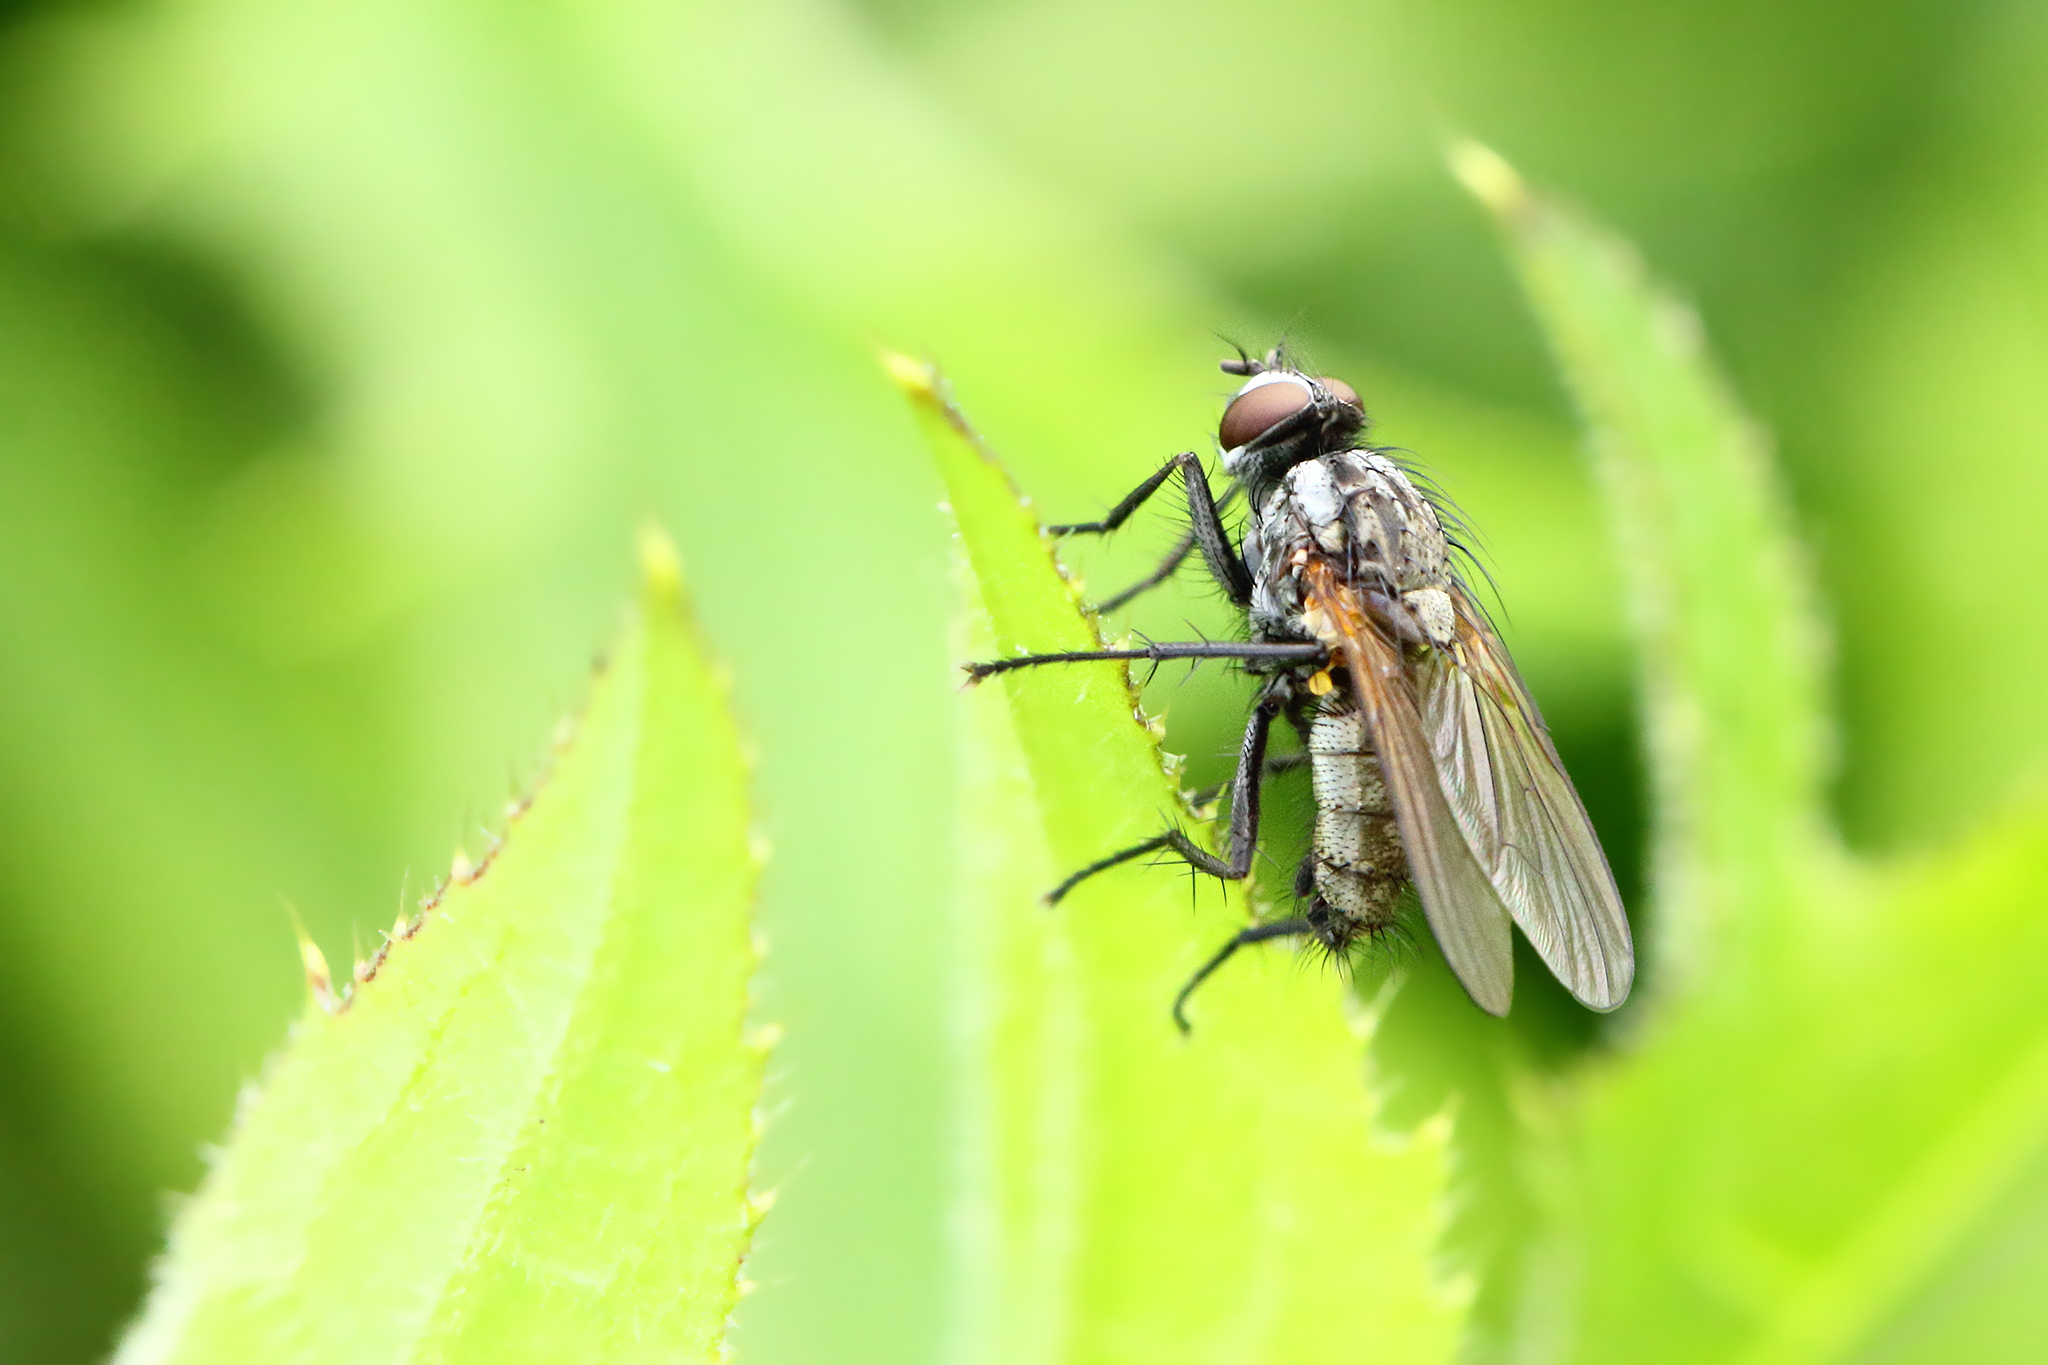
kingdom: Animalia
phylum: Arthropoda
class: Insecta
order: Diptera
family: Anthomyiidae
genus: Hydrophoria
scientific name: Hydrophoria silvicola
